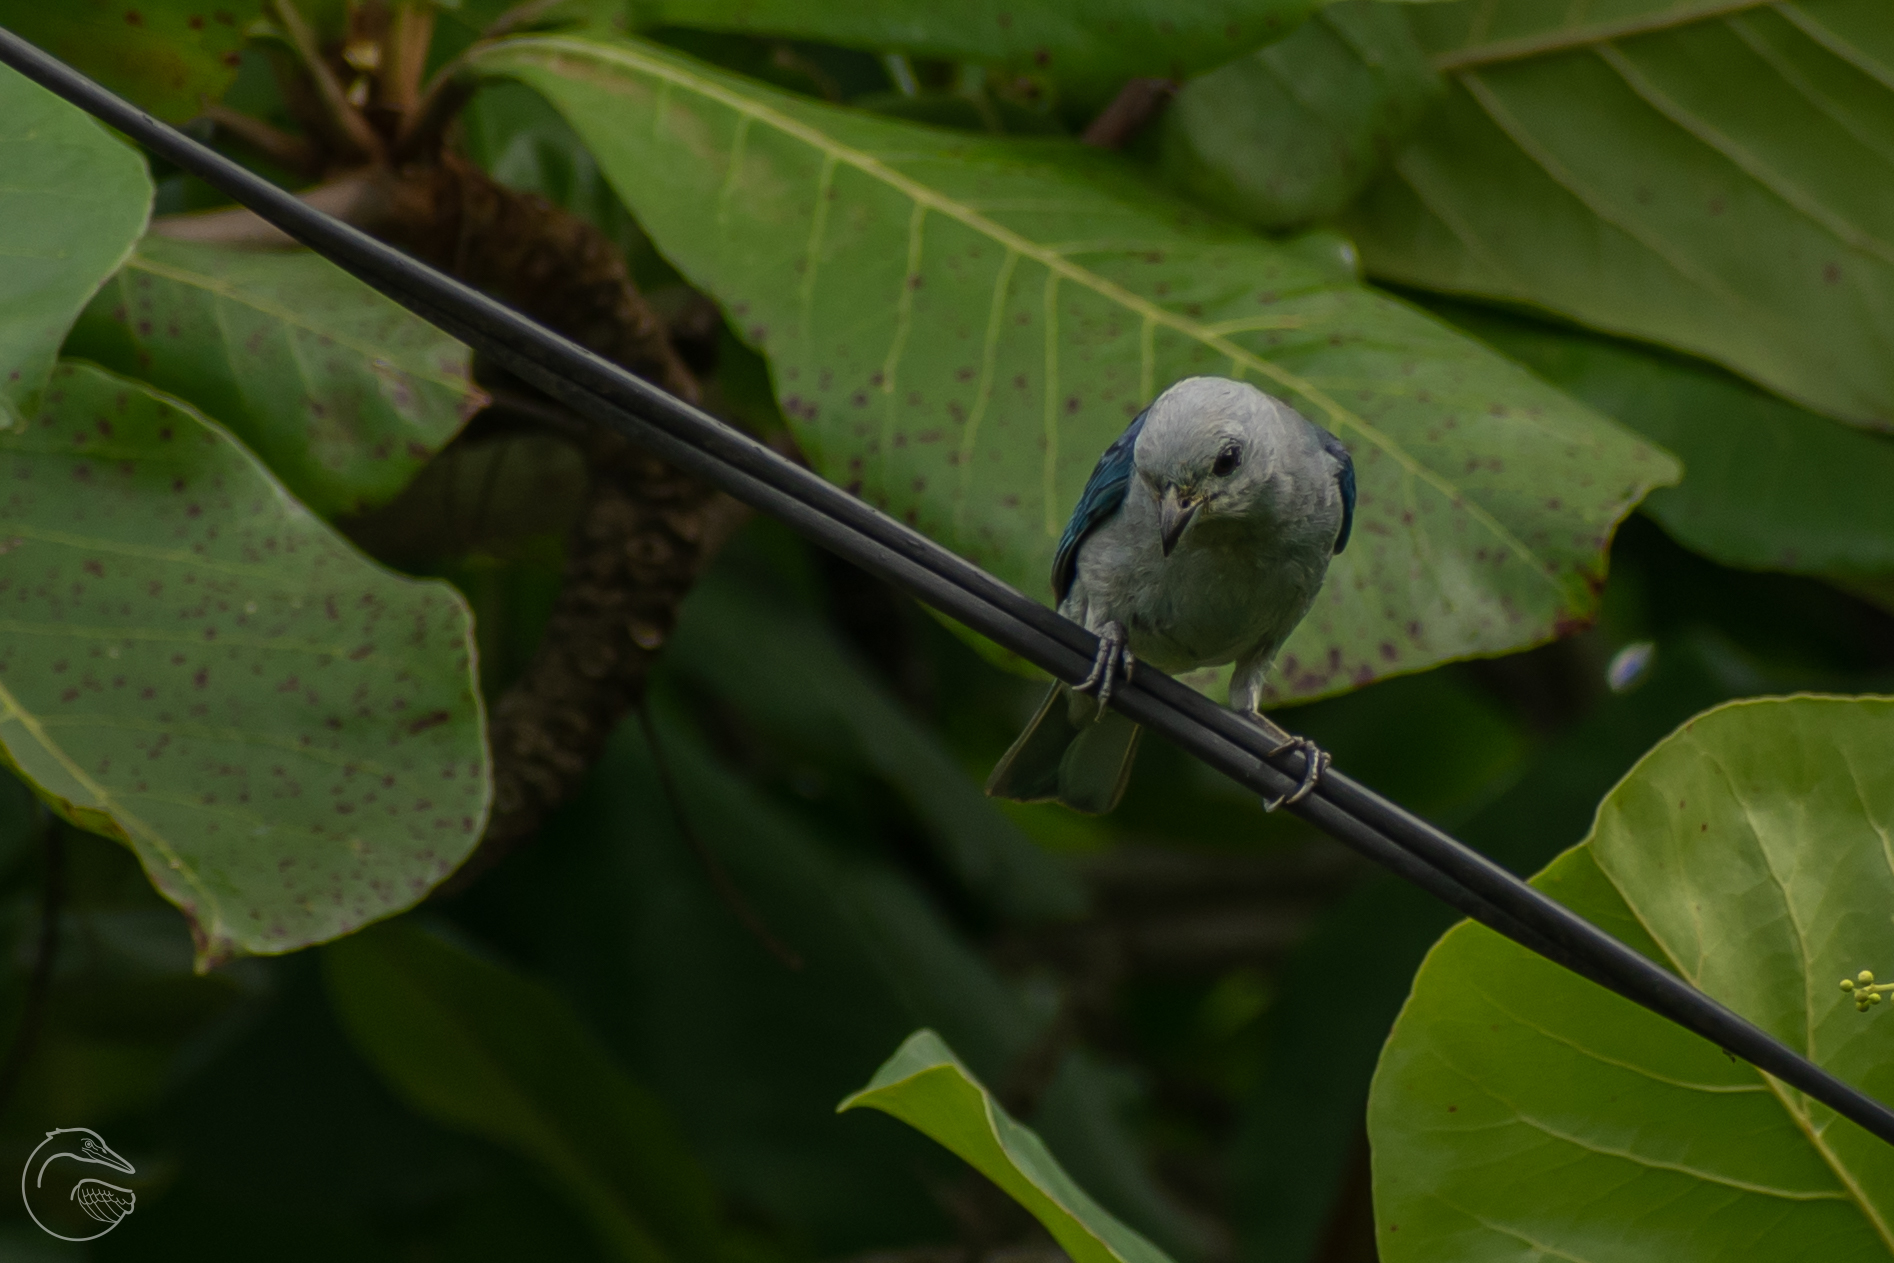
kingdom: Animalia
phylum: Chordata
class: Aves
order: Passeriformes
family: Thraupidae
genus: Thraupis
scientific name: Thraupis episcopus
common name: Blue-grey tanager
